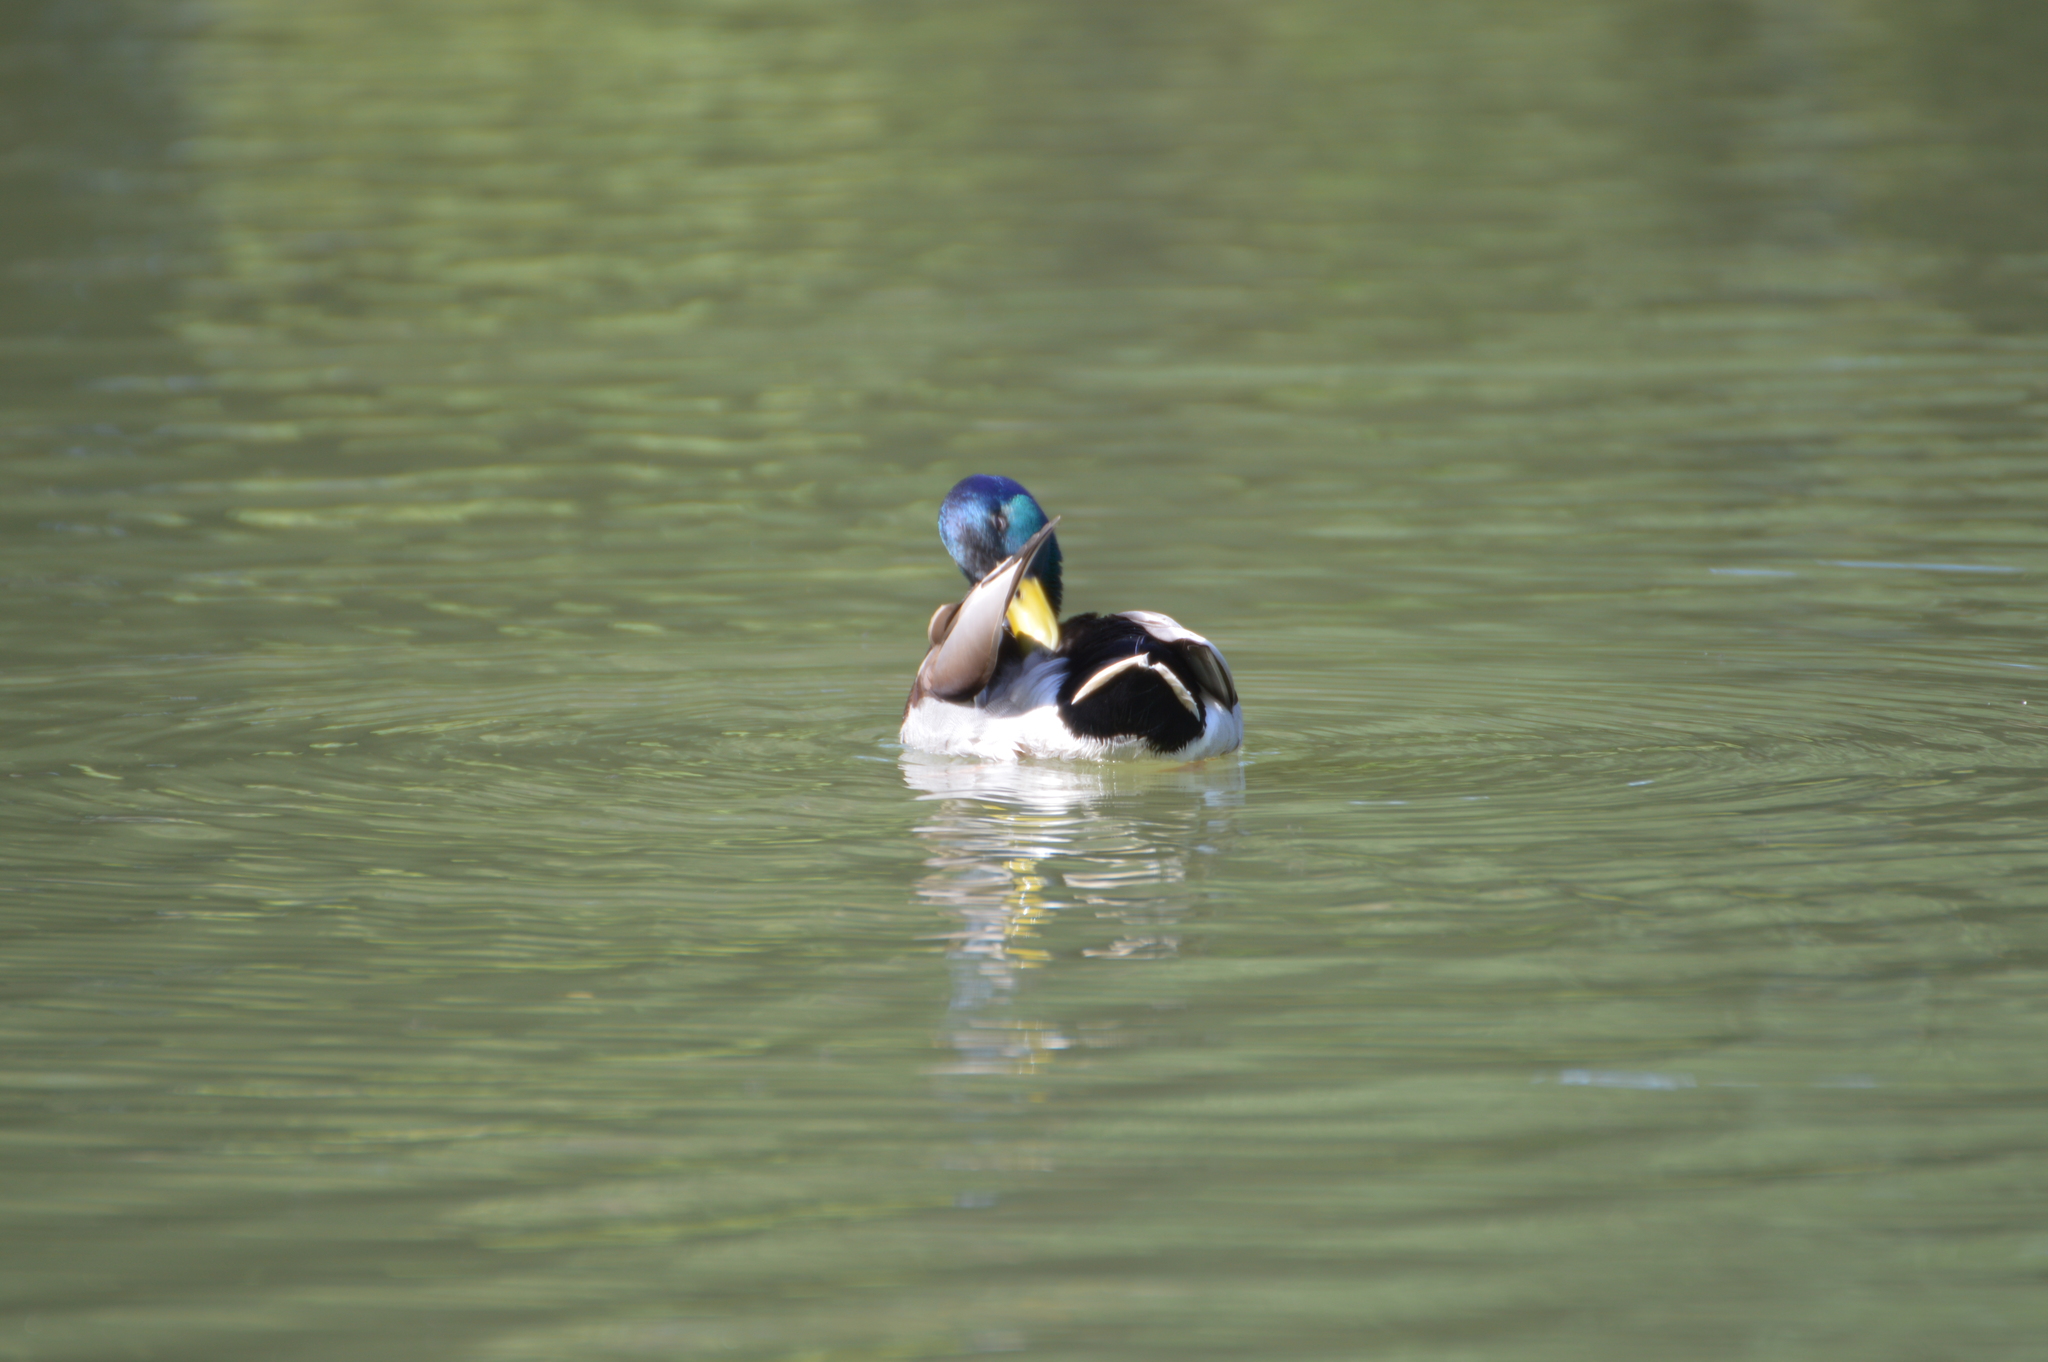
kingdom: Animalia
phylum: Chordata
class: Aves
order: Anseriformes
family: Anatidae
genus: Anas
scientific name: Anas platyrhynchos
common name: Mallard
